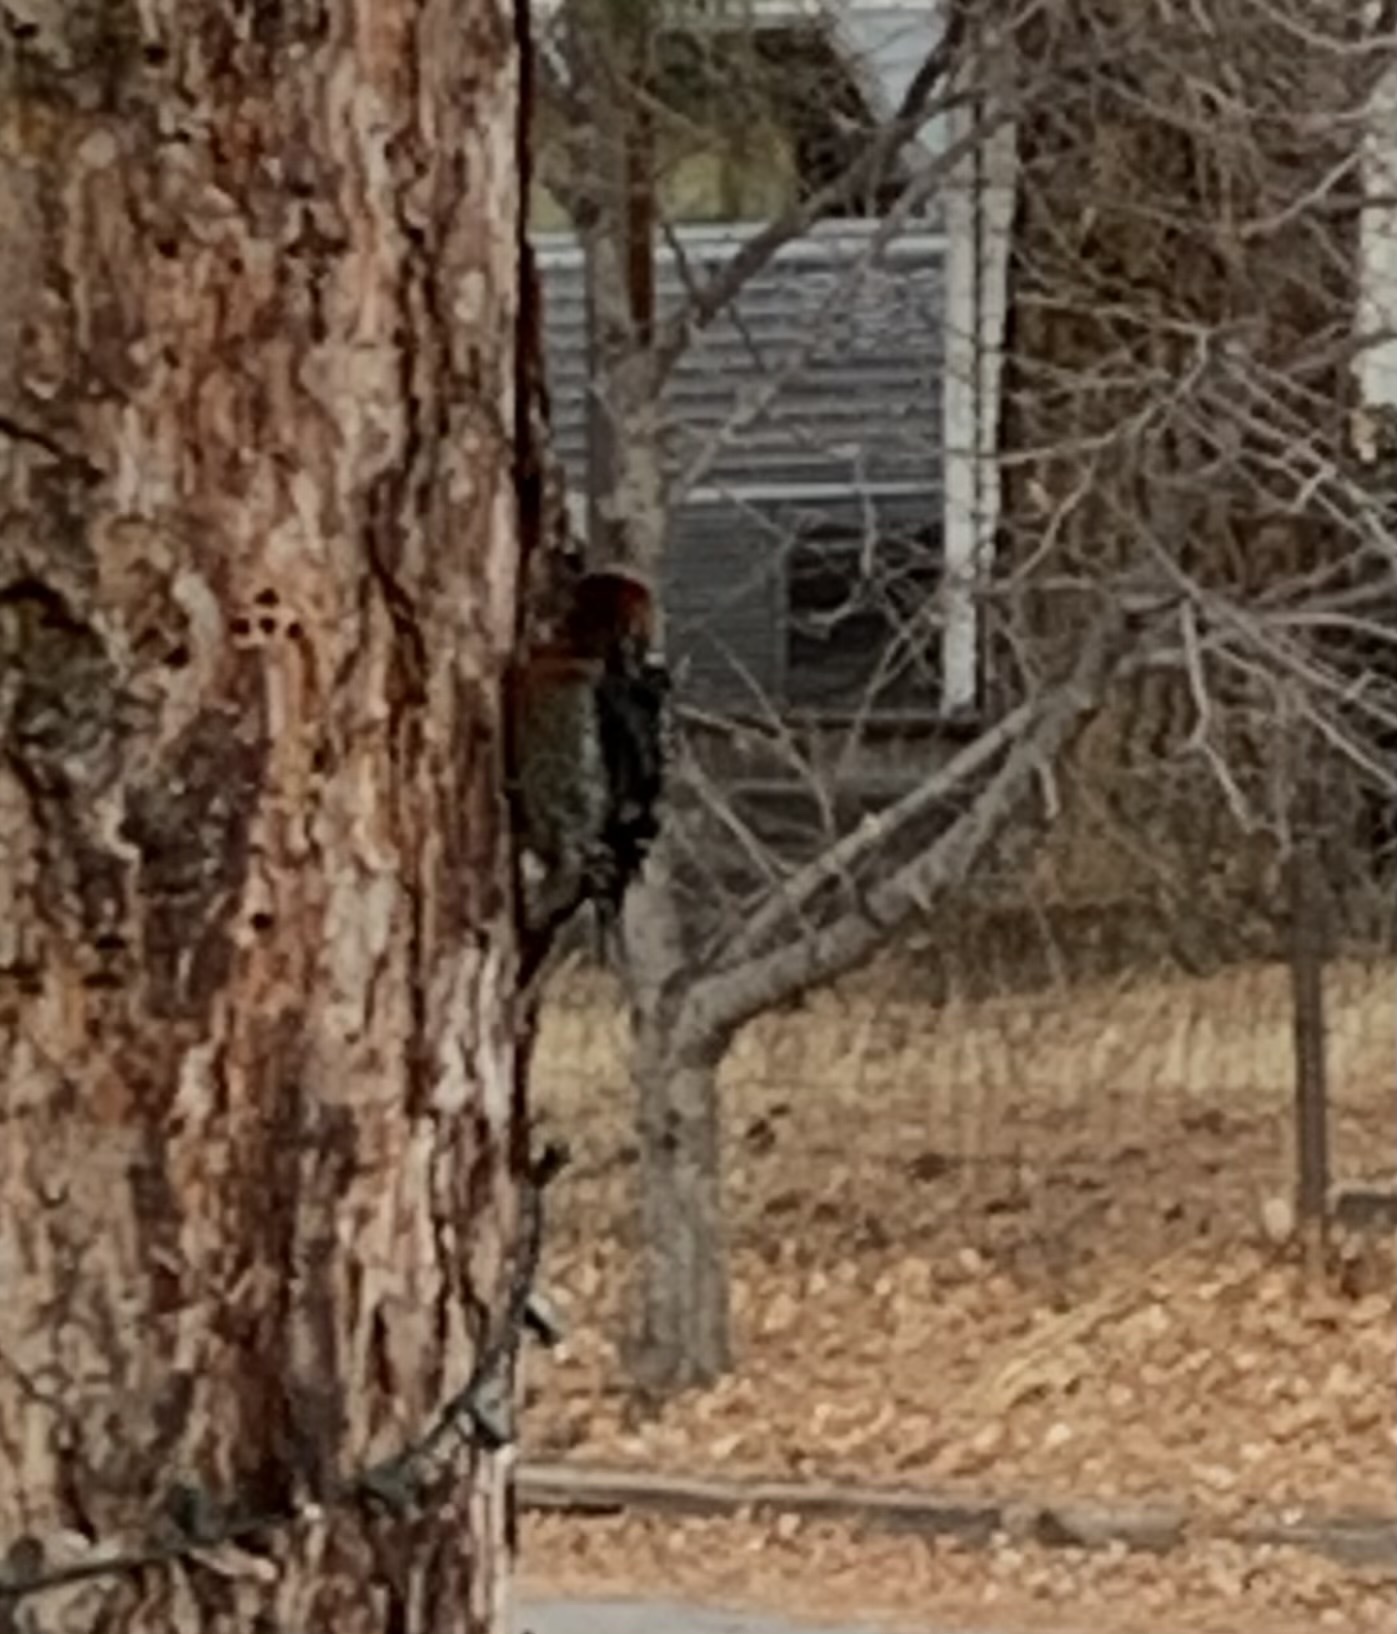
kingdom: Animalia
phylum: Chordata
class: Aves
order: Piciformes
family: Picidae
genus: Sphyrapicus
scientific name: Sphyrapicus ruber
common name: Red-breasted sapsucker
